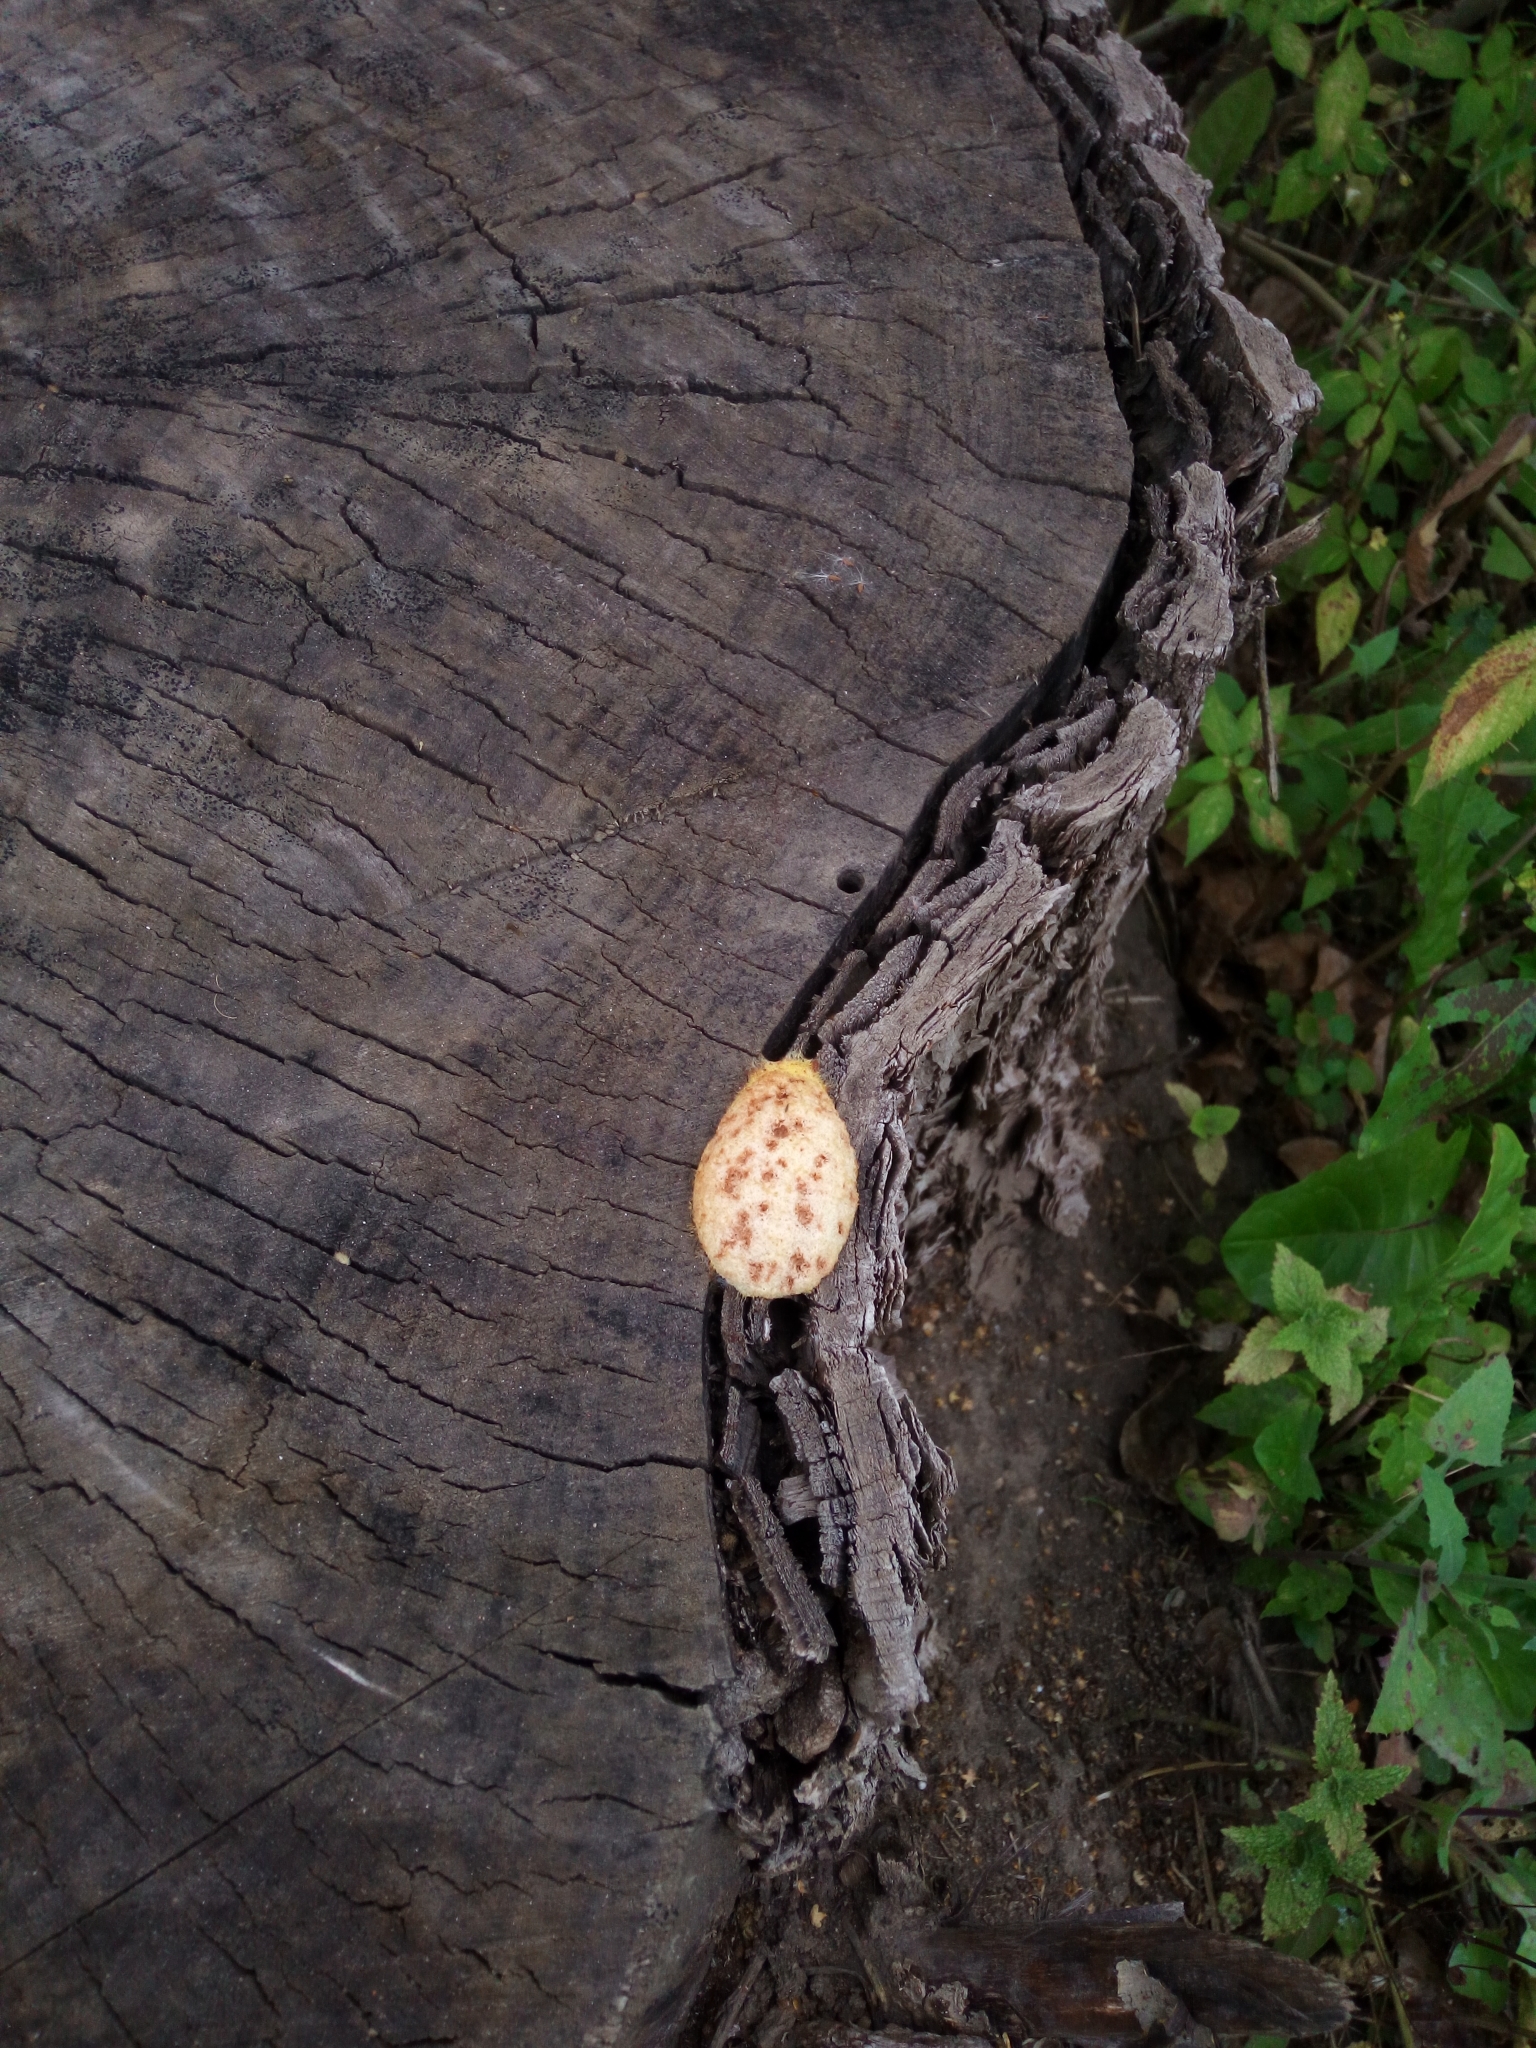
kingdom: Protozoa
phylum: Mycetozoa
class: Myxomycetes
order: Physarales
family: Physaraceae
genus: Fuligo
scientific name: Fuligo septica
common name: Dog vomit slime mold
